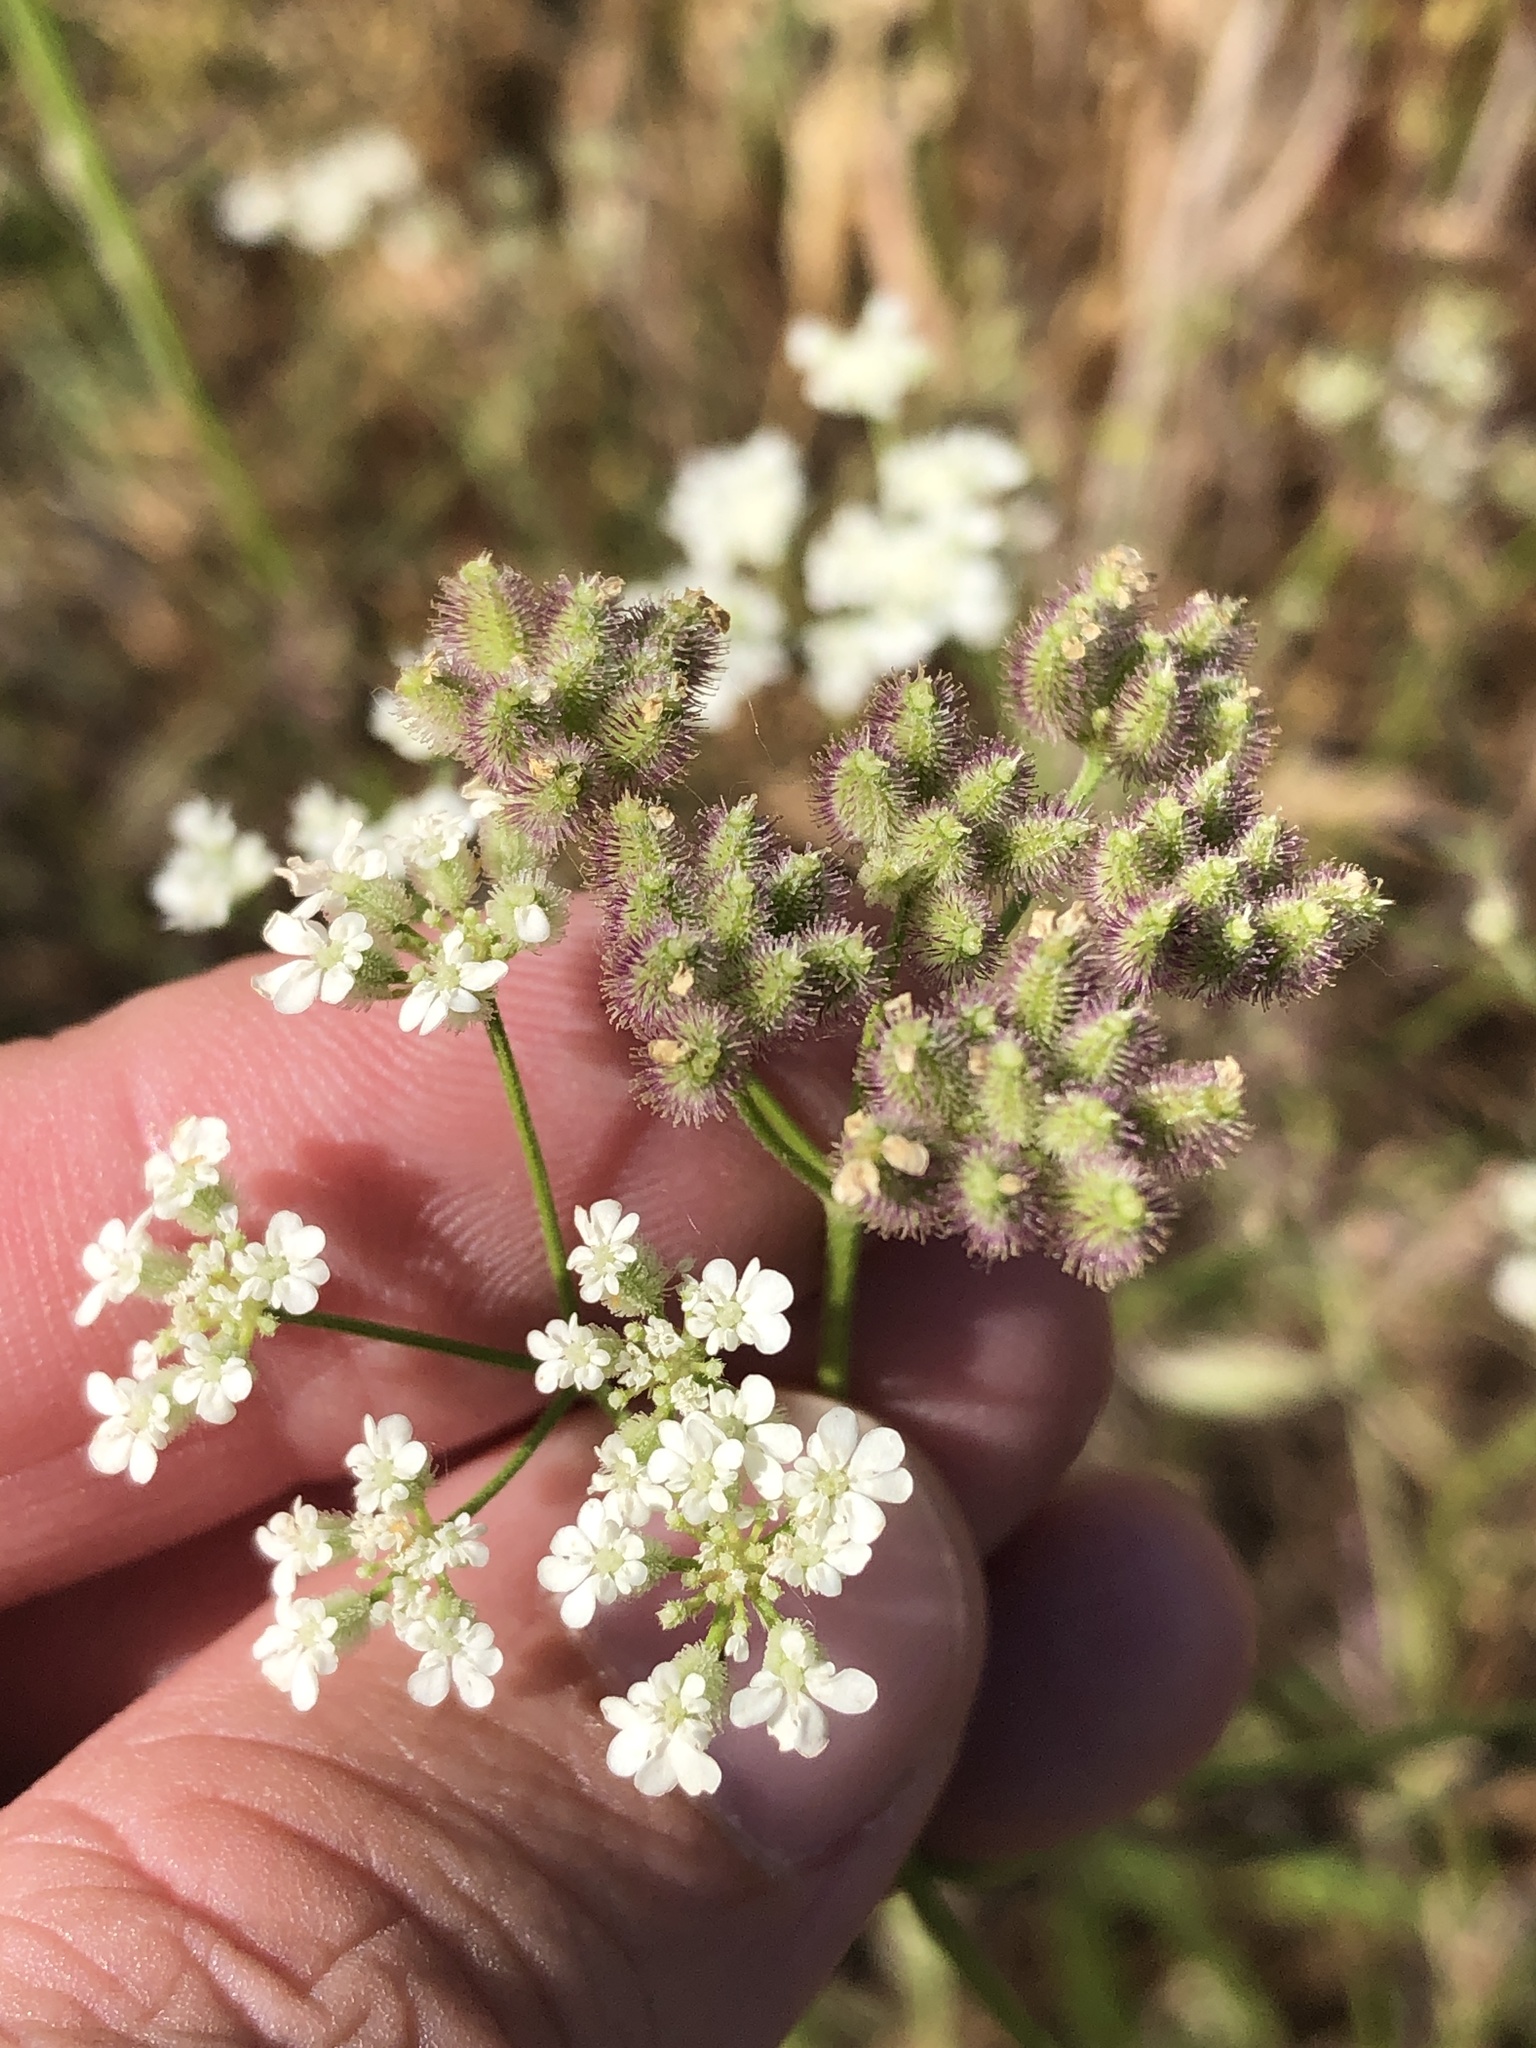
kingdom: Plantae
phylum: Tracheophyta
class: Magnoliopsida
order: Apiales
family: Apiaceae
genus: Torilis
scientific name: Torilis arvensis
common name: Spreading hedge-parsley
